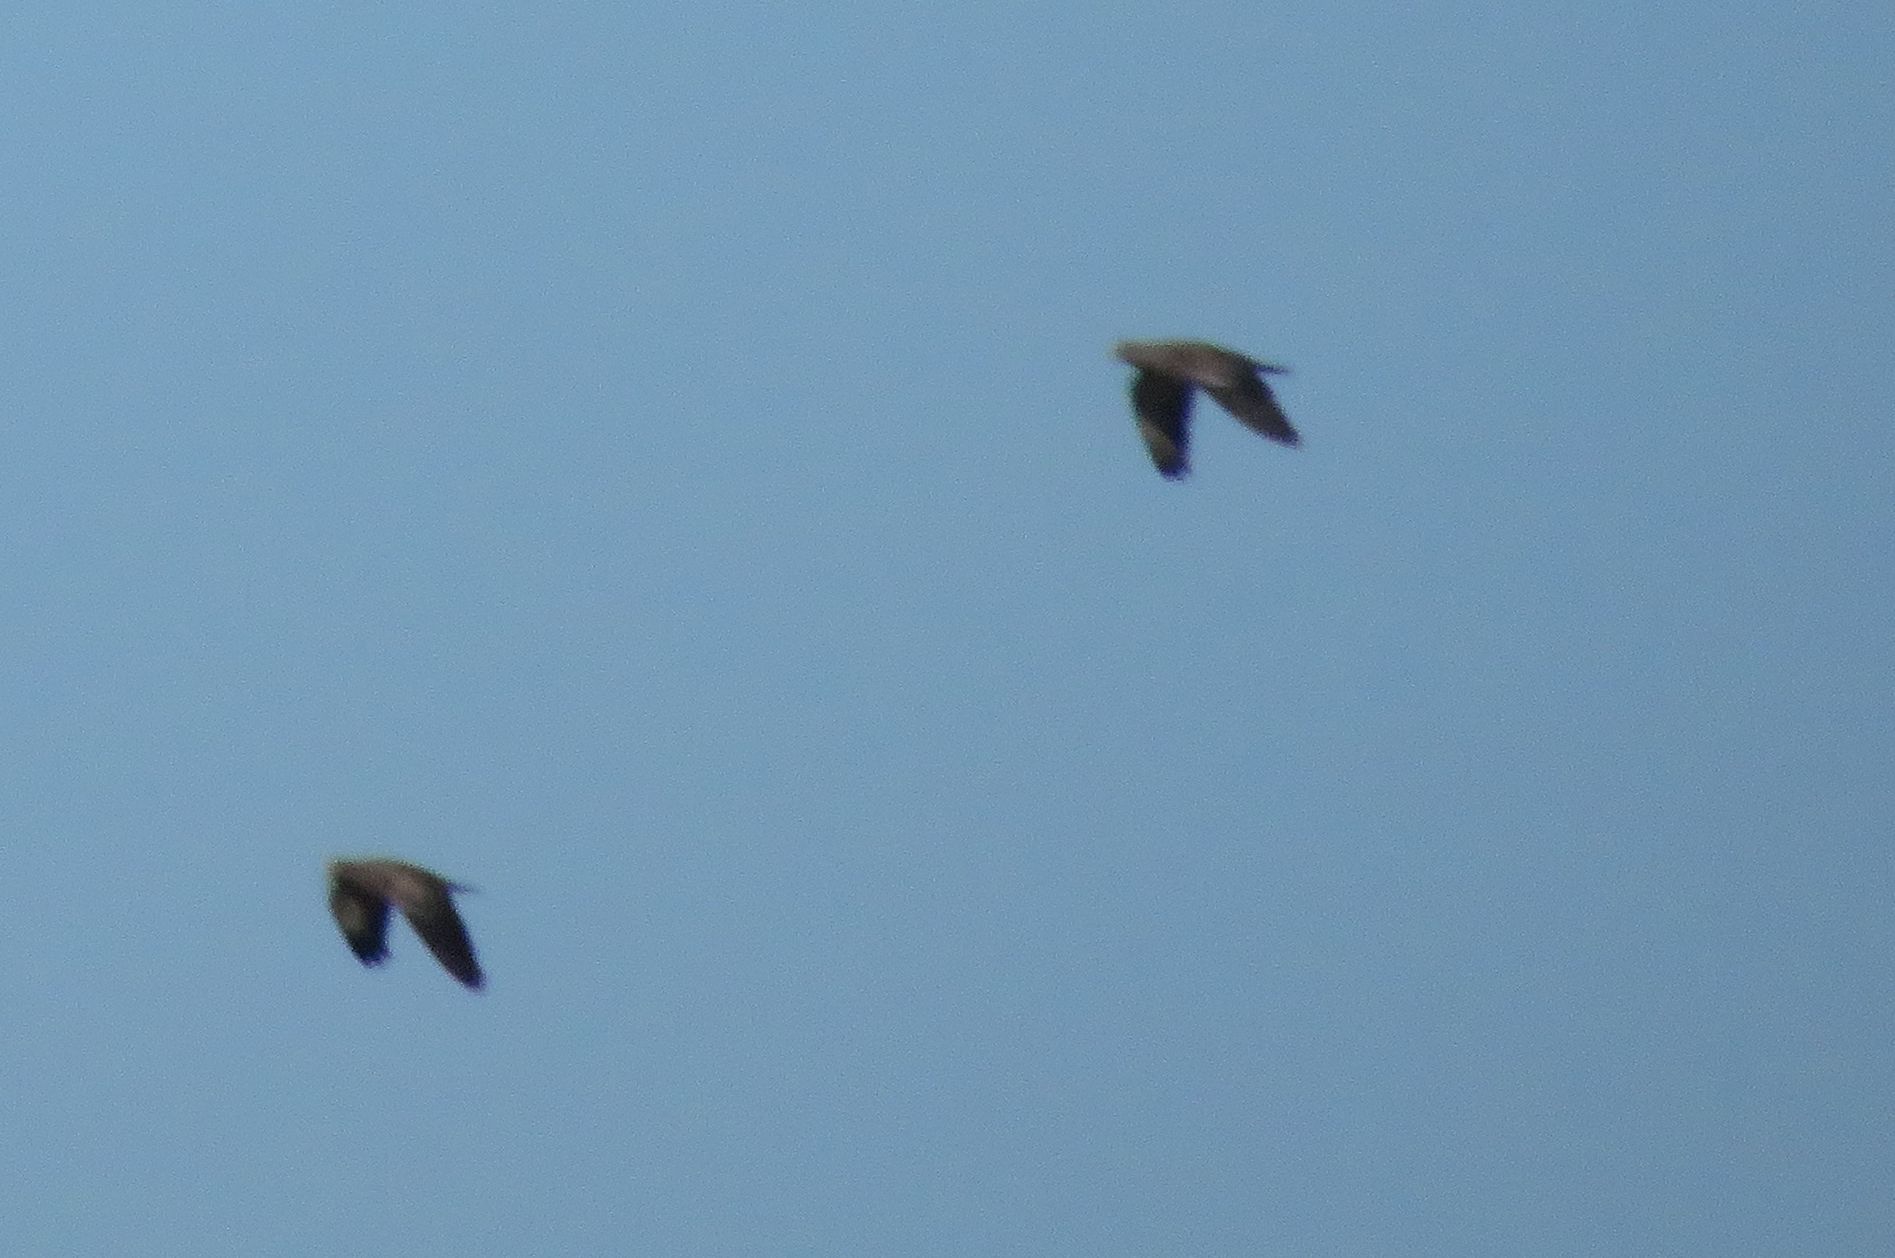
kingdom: Animalia
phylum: Chordata
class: Aves
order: Columbiformes
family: Columbidae
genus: Patagioenas
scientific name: Patagioenas picazuro
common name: Picazuro pigeon
